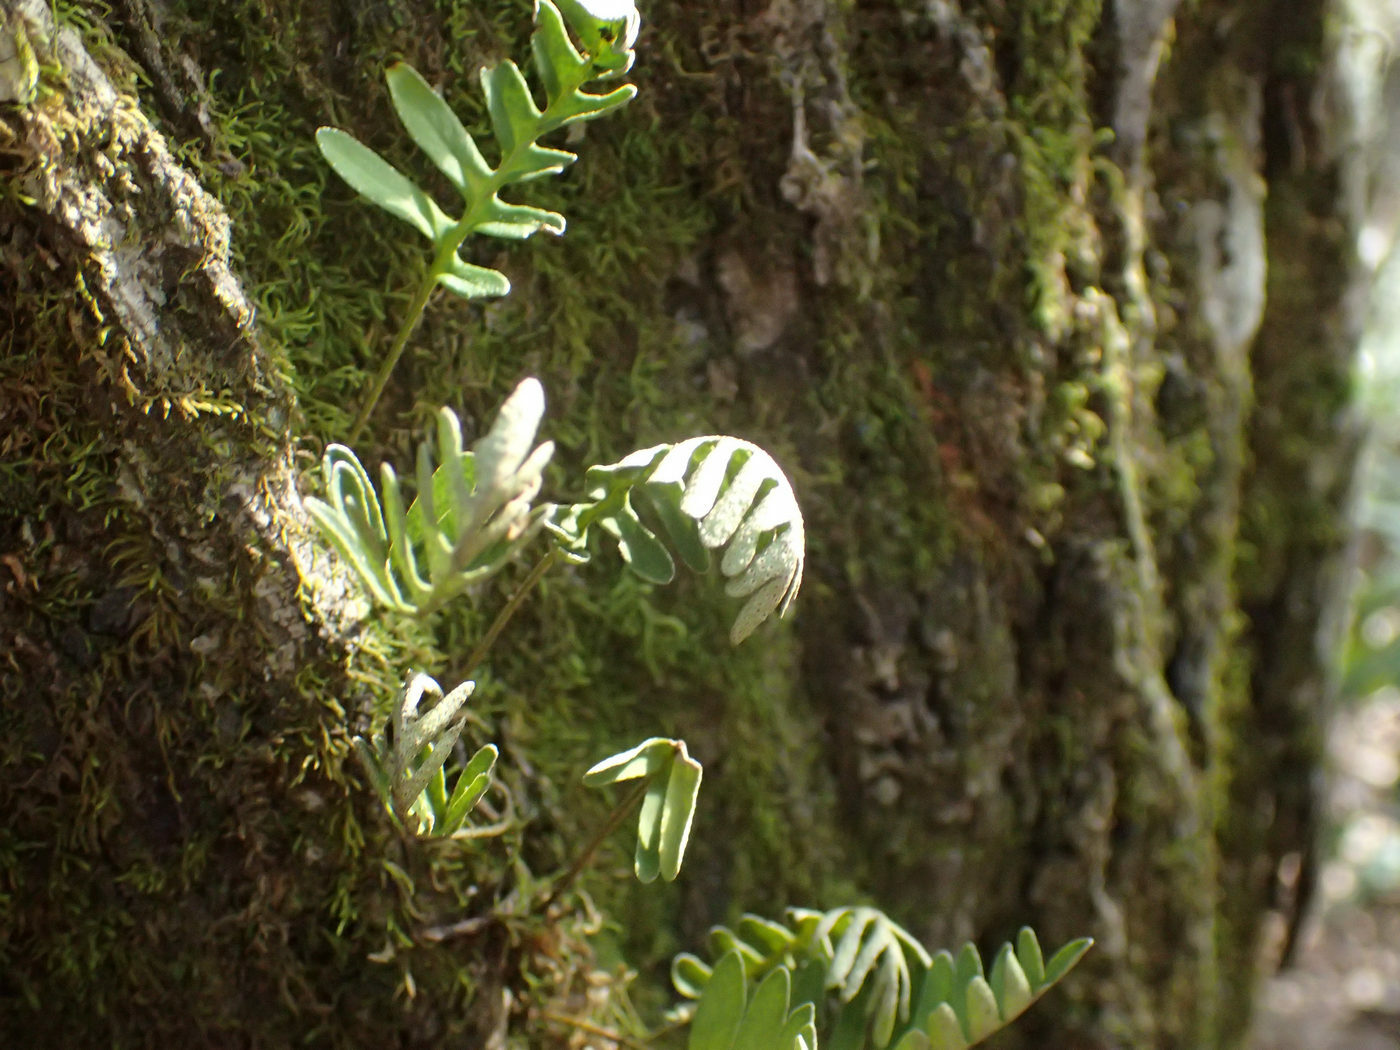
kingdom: Plantae
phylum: Tracheophyta
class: Polypodiopsida
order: Polypodiales
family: Polypodiaceae
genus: Pleopeltis
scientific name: Pleopeltis michauxiana
